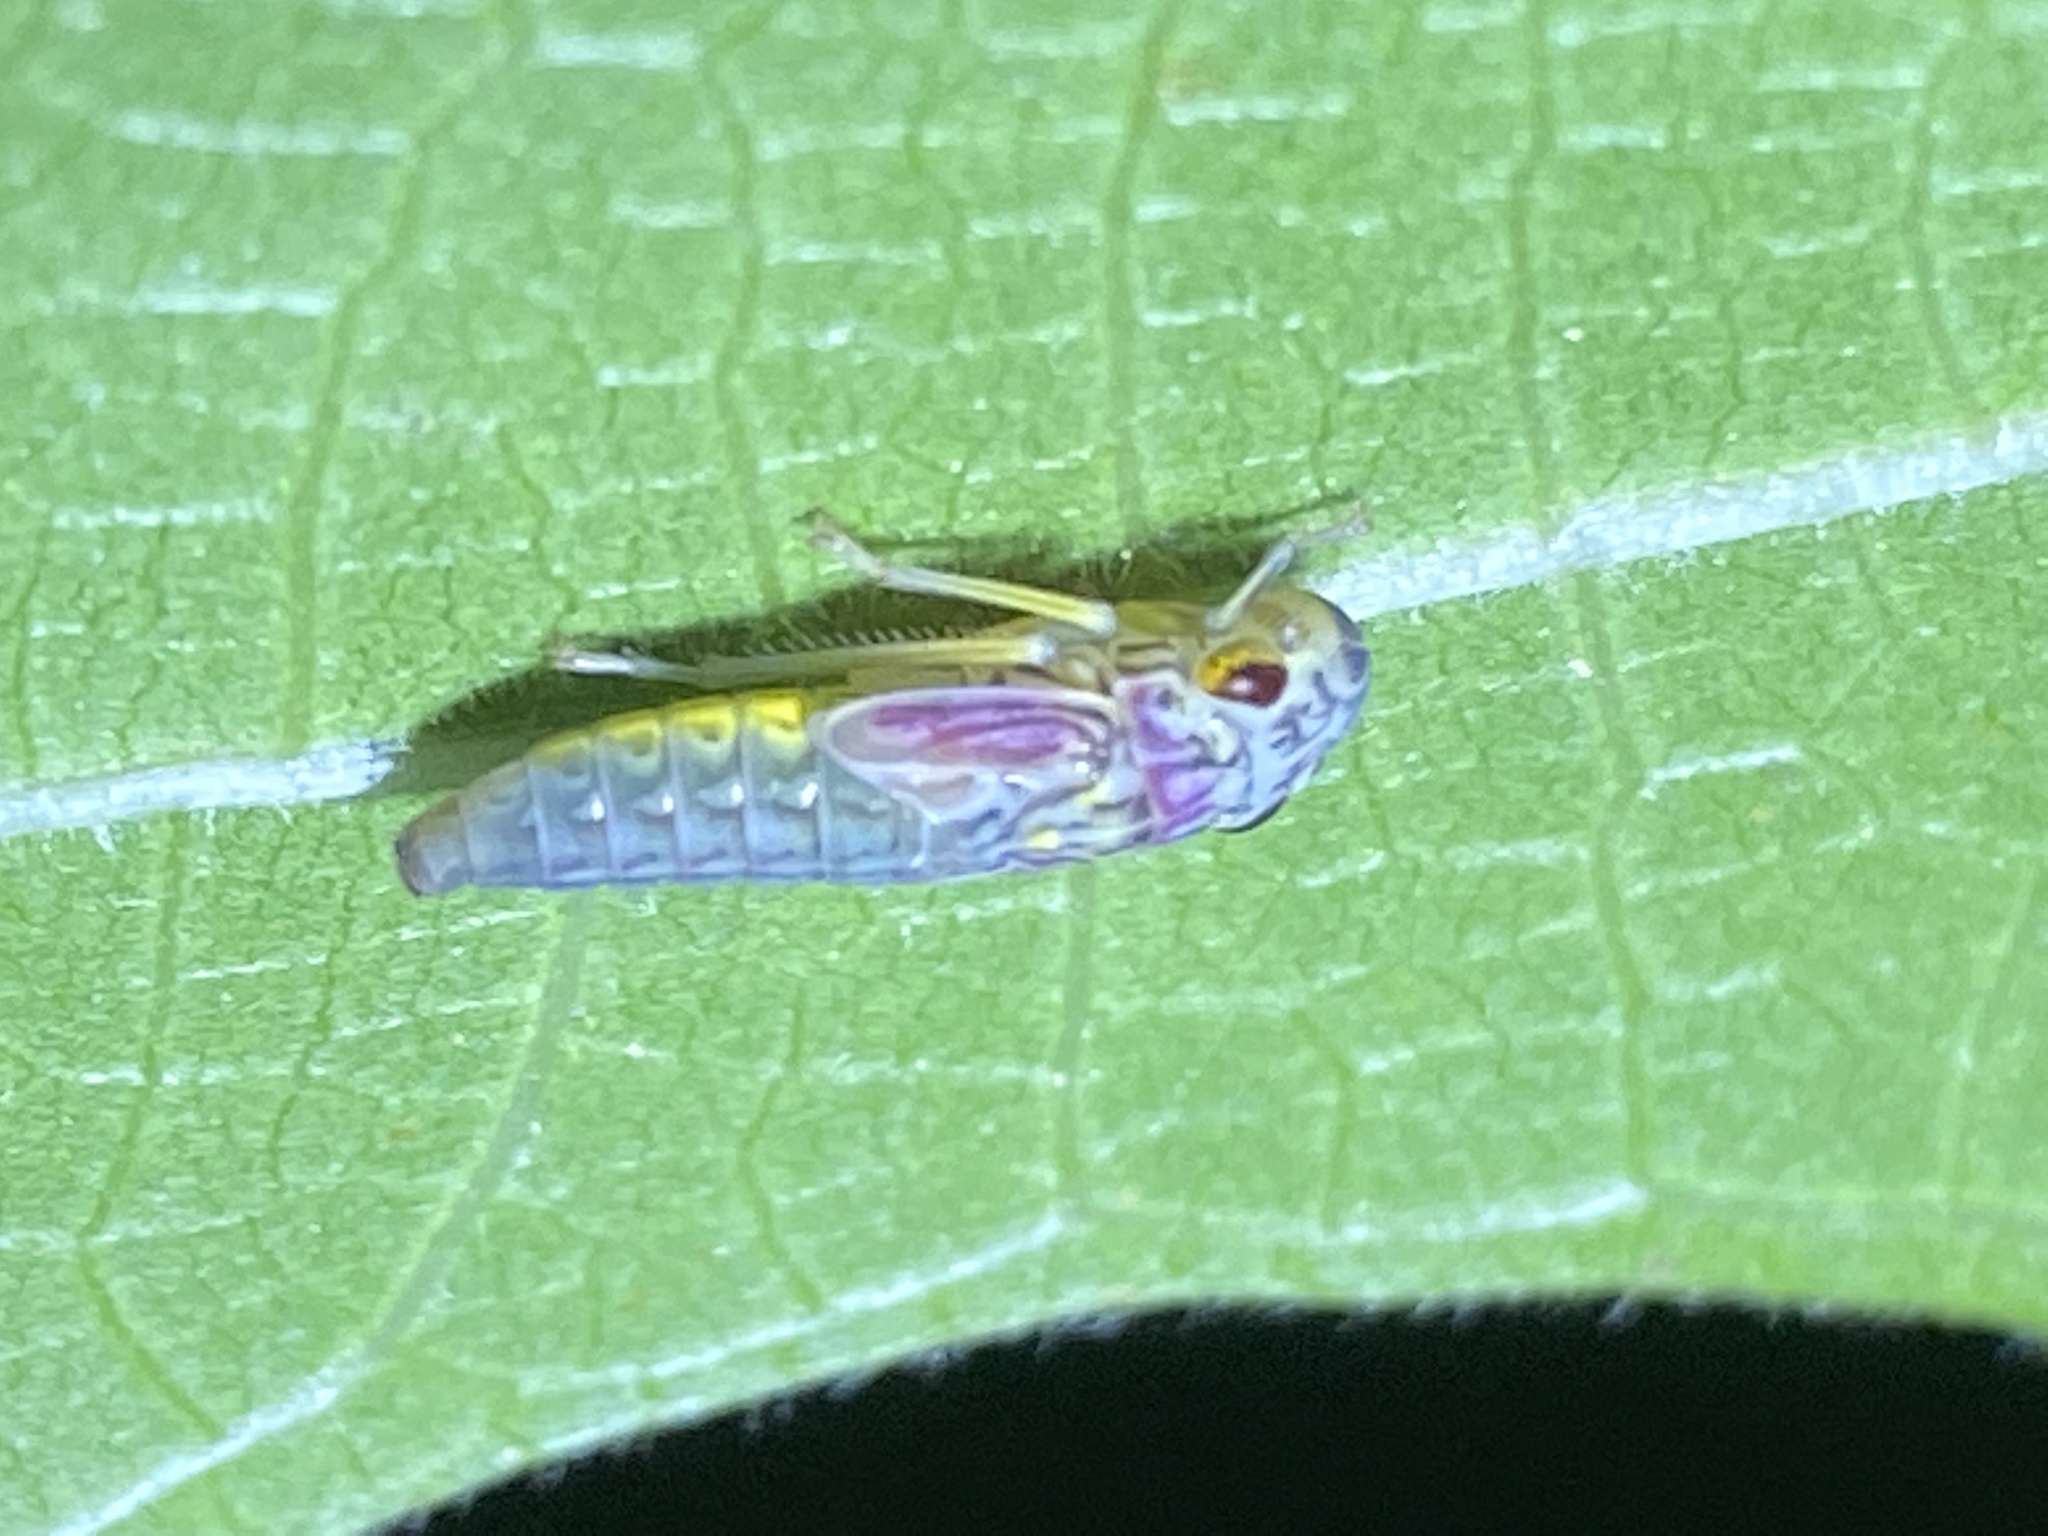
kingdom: Animalia
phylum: Arthropoda
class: Insecta
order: Hemiptera
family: Cicadellidae
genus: Oncometopia
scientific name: Oncometopia orbona
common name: Broad-headed sharpshooter
